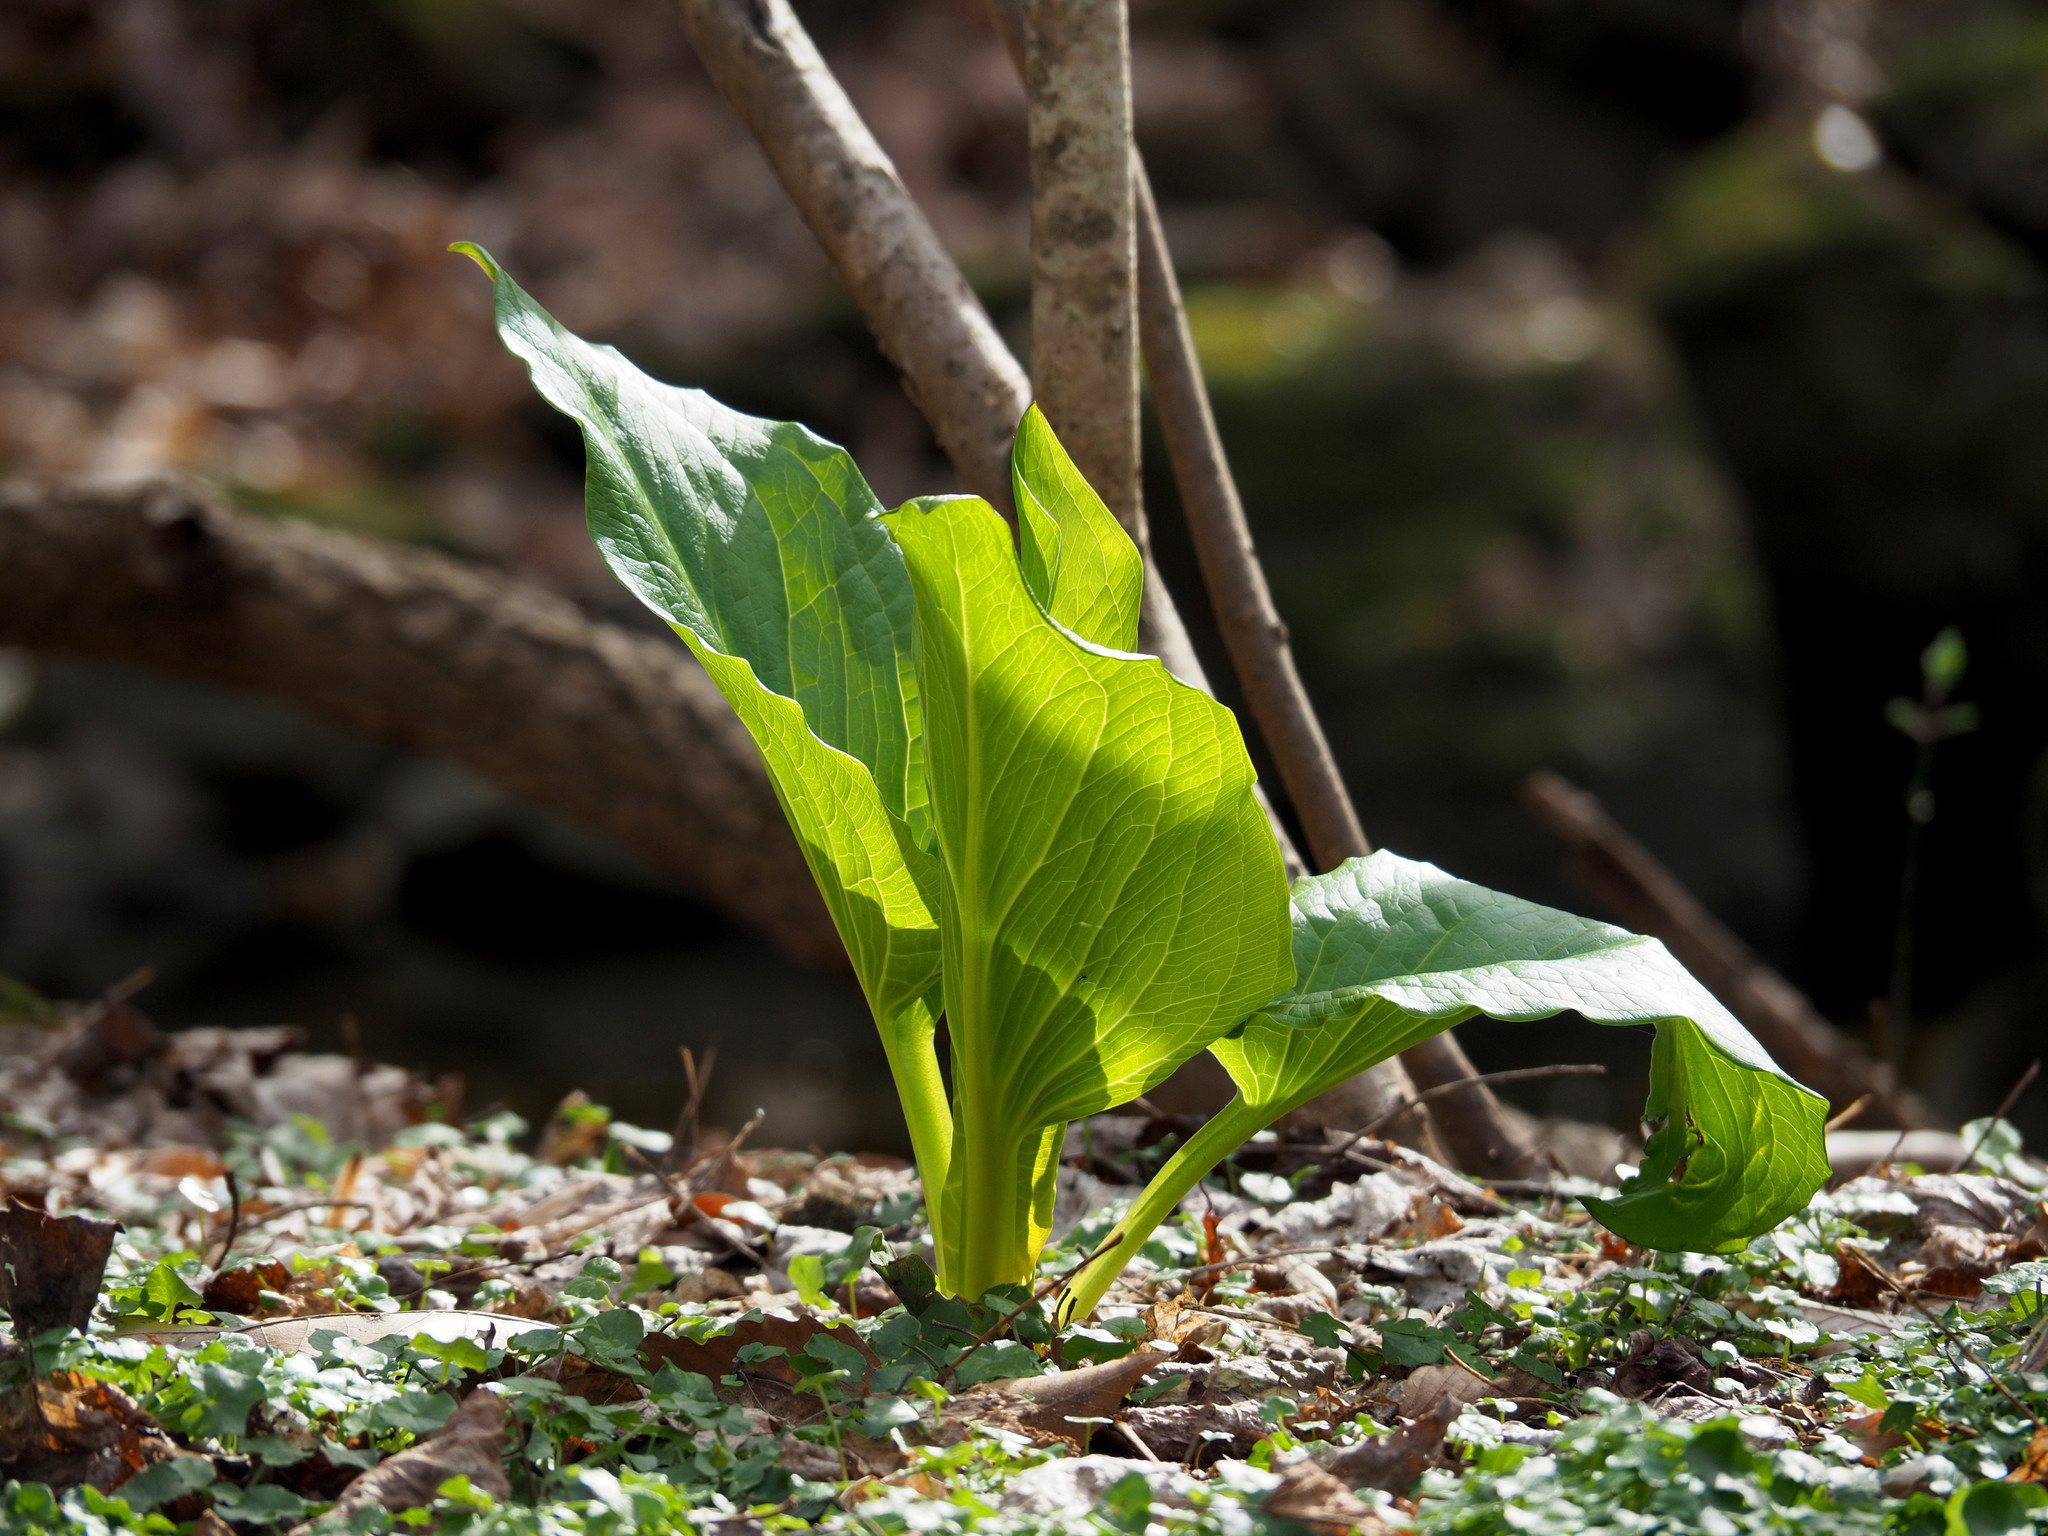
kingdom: Plantae
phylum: Tracheophyta
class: Liliopsida
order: Alismatales
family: Araceae
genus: Symplocarpus
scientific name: Symplocarpus foetidus
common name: Eastern skunk cabbage
